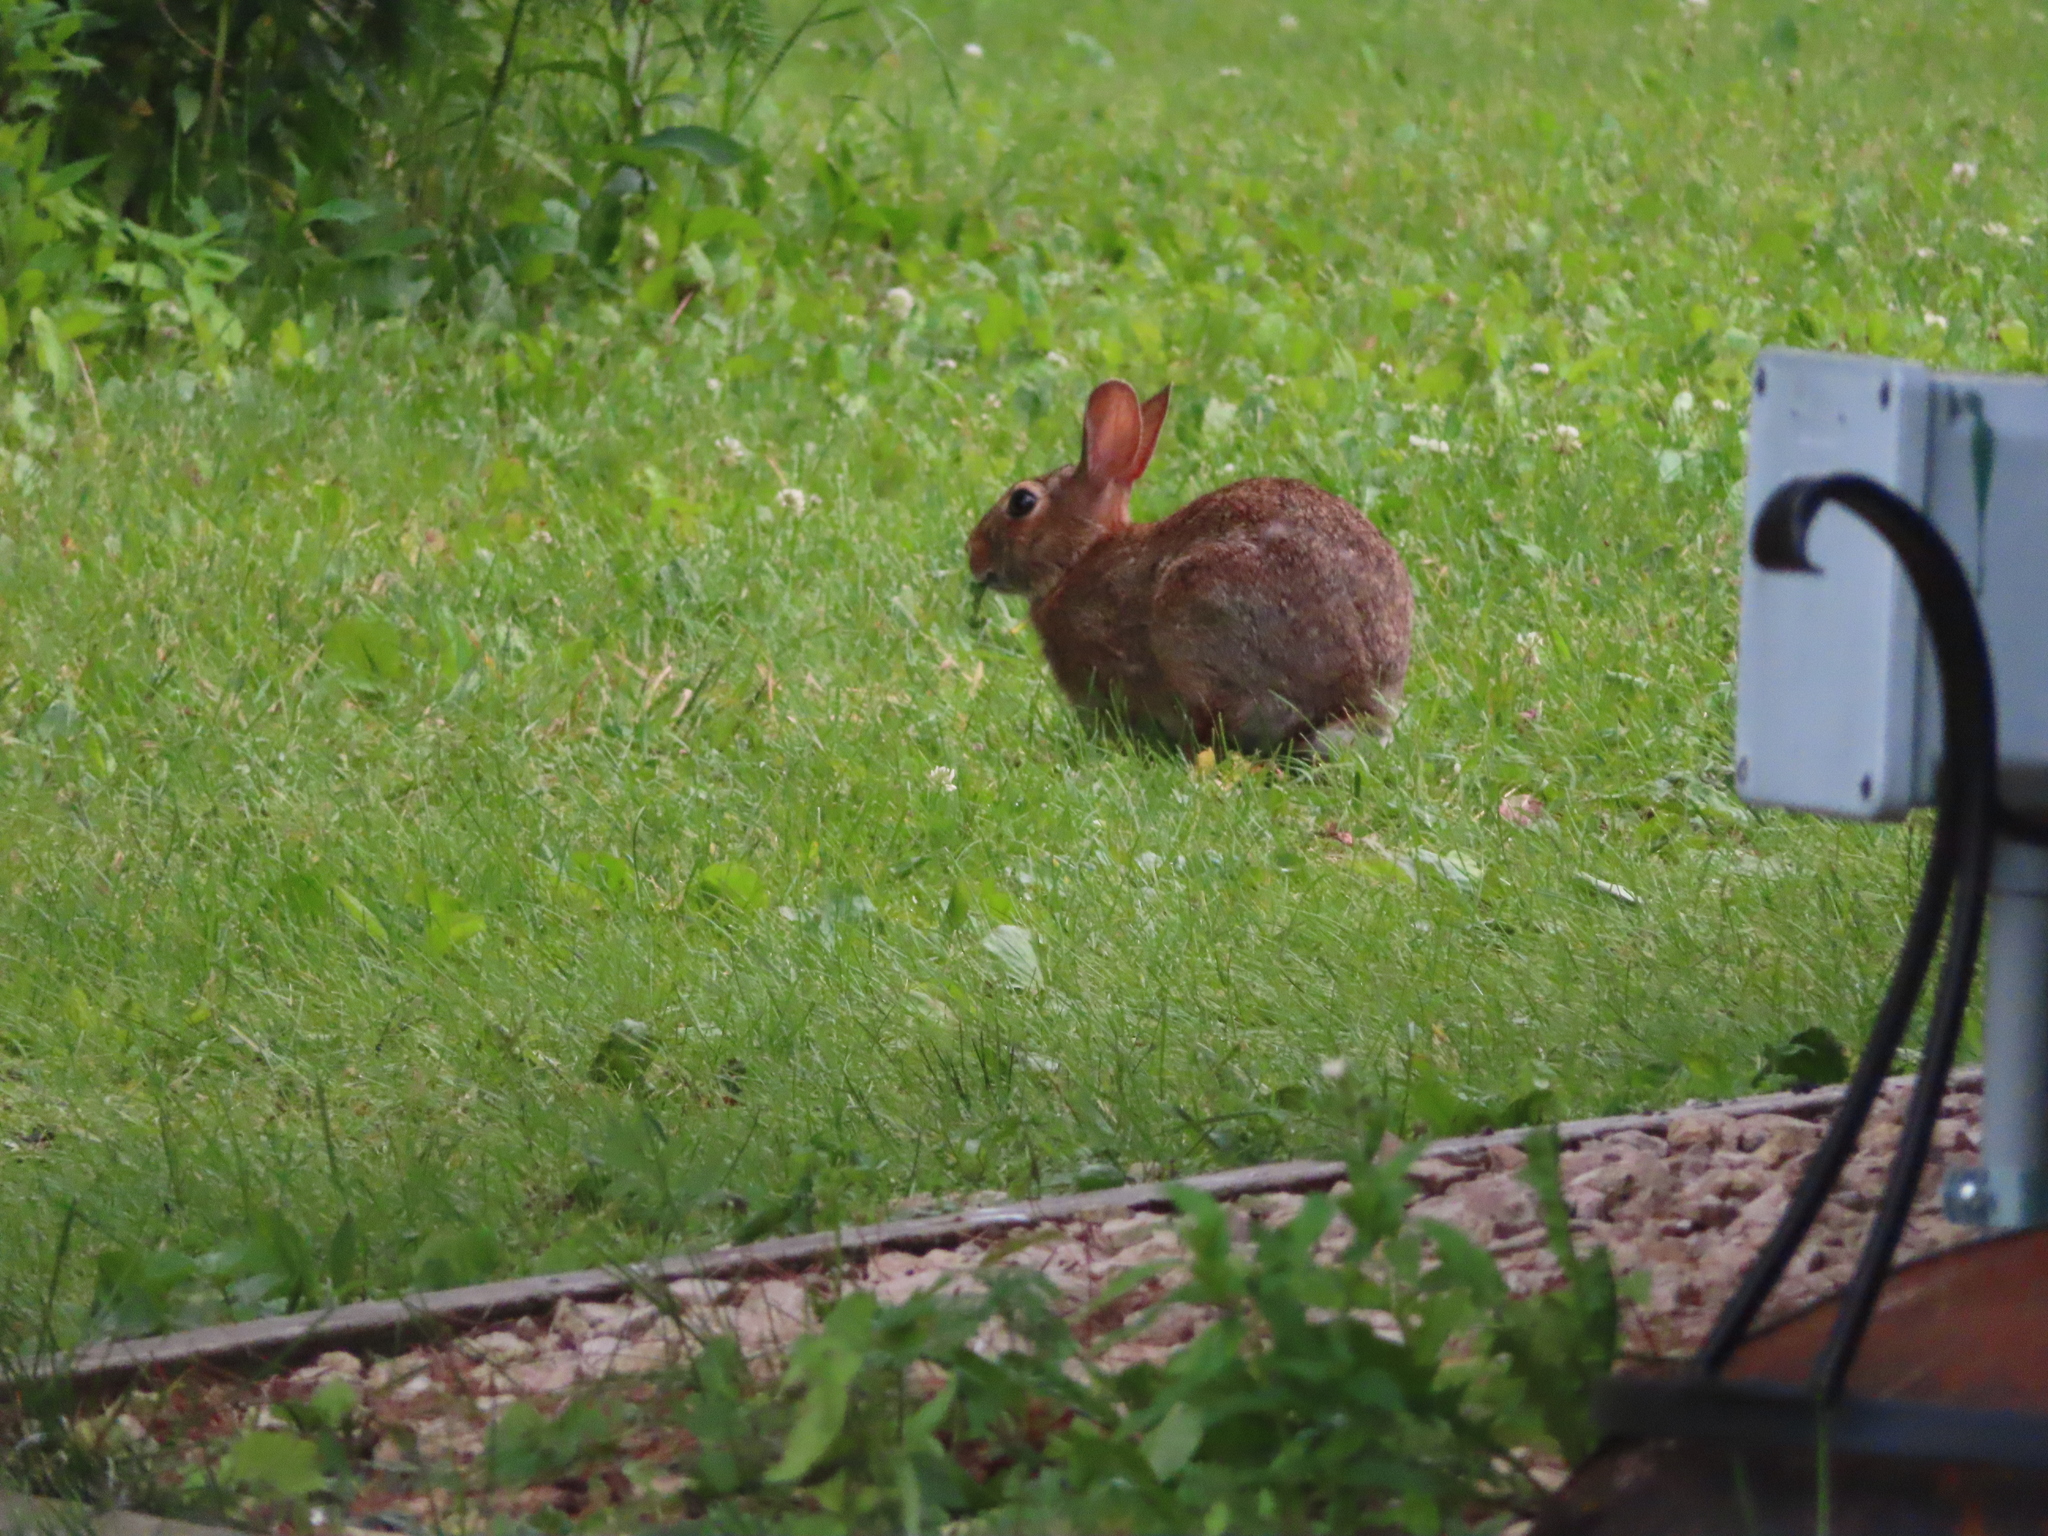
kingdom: Animalia
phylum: Chordata
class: Mammalia
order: Lagomorpha
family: Leporidae
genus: Sylvilagus
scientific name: Sylvilagus floridanus
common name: Eastern cottontail
